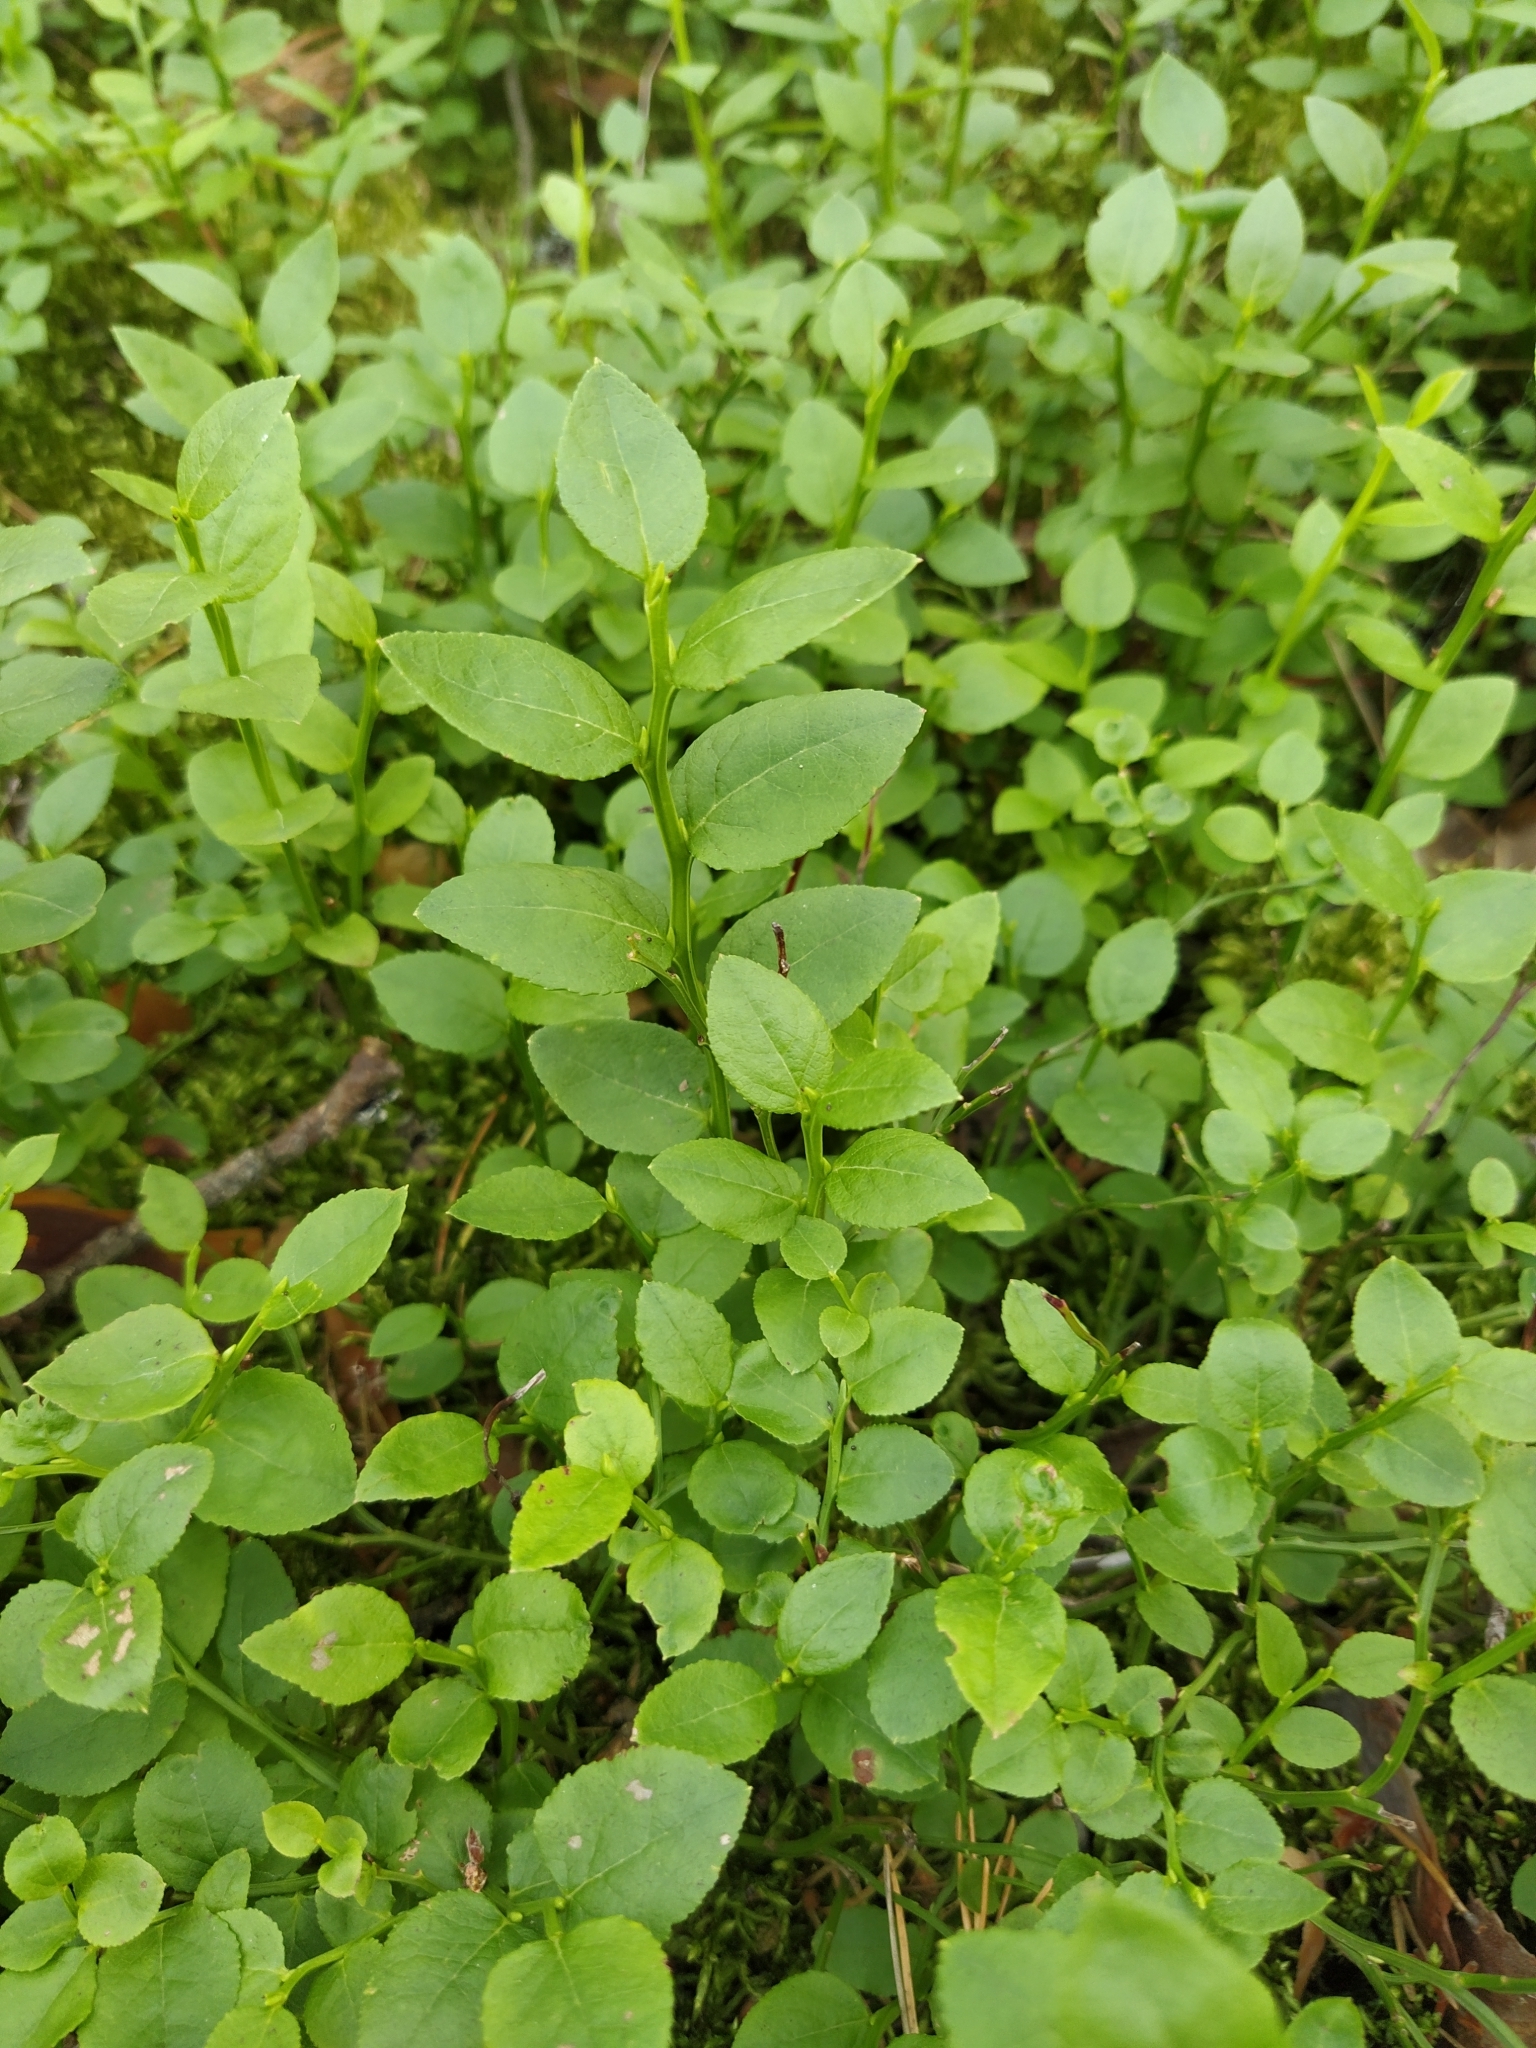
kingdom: Plantae
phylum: Tracheophyta
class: Magnoliopsida
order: Ericales
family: Ericaceae
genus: Vaccinium
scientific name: Vaccinium myrtillus
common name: Bilberry
